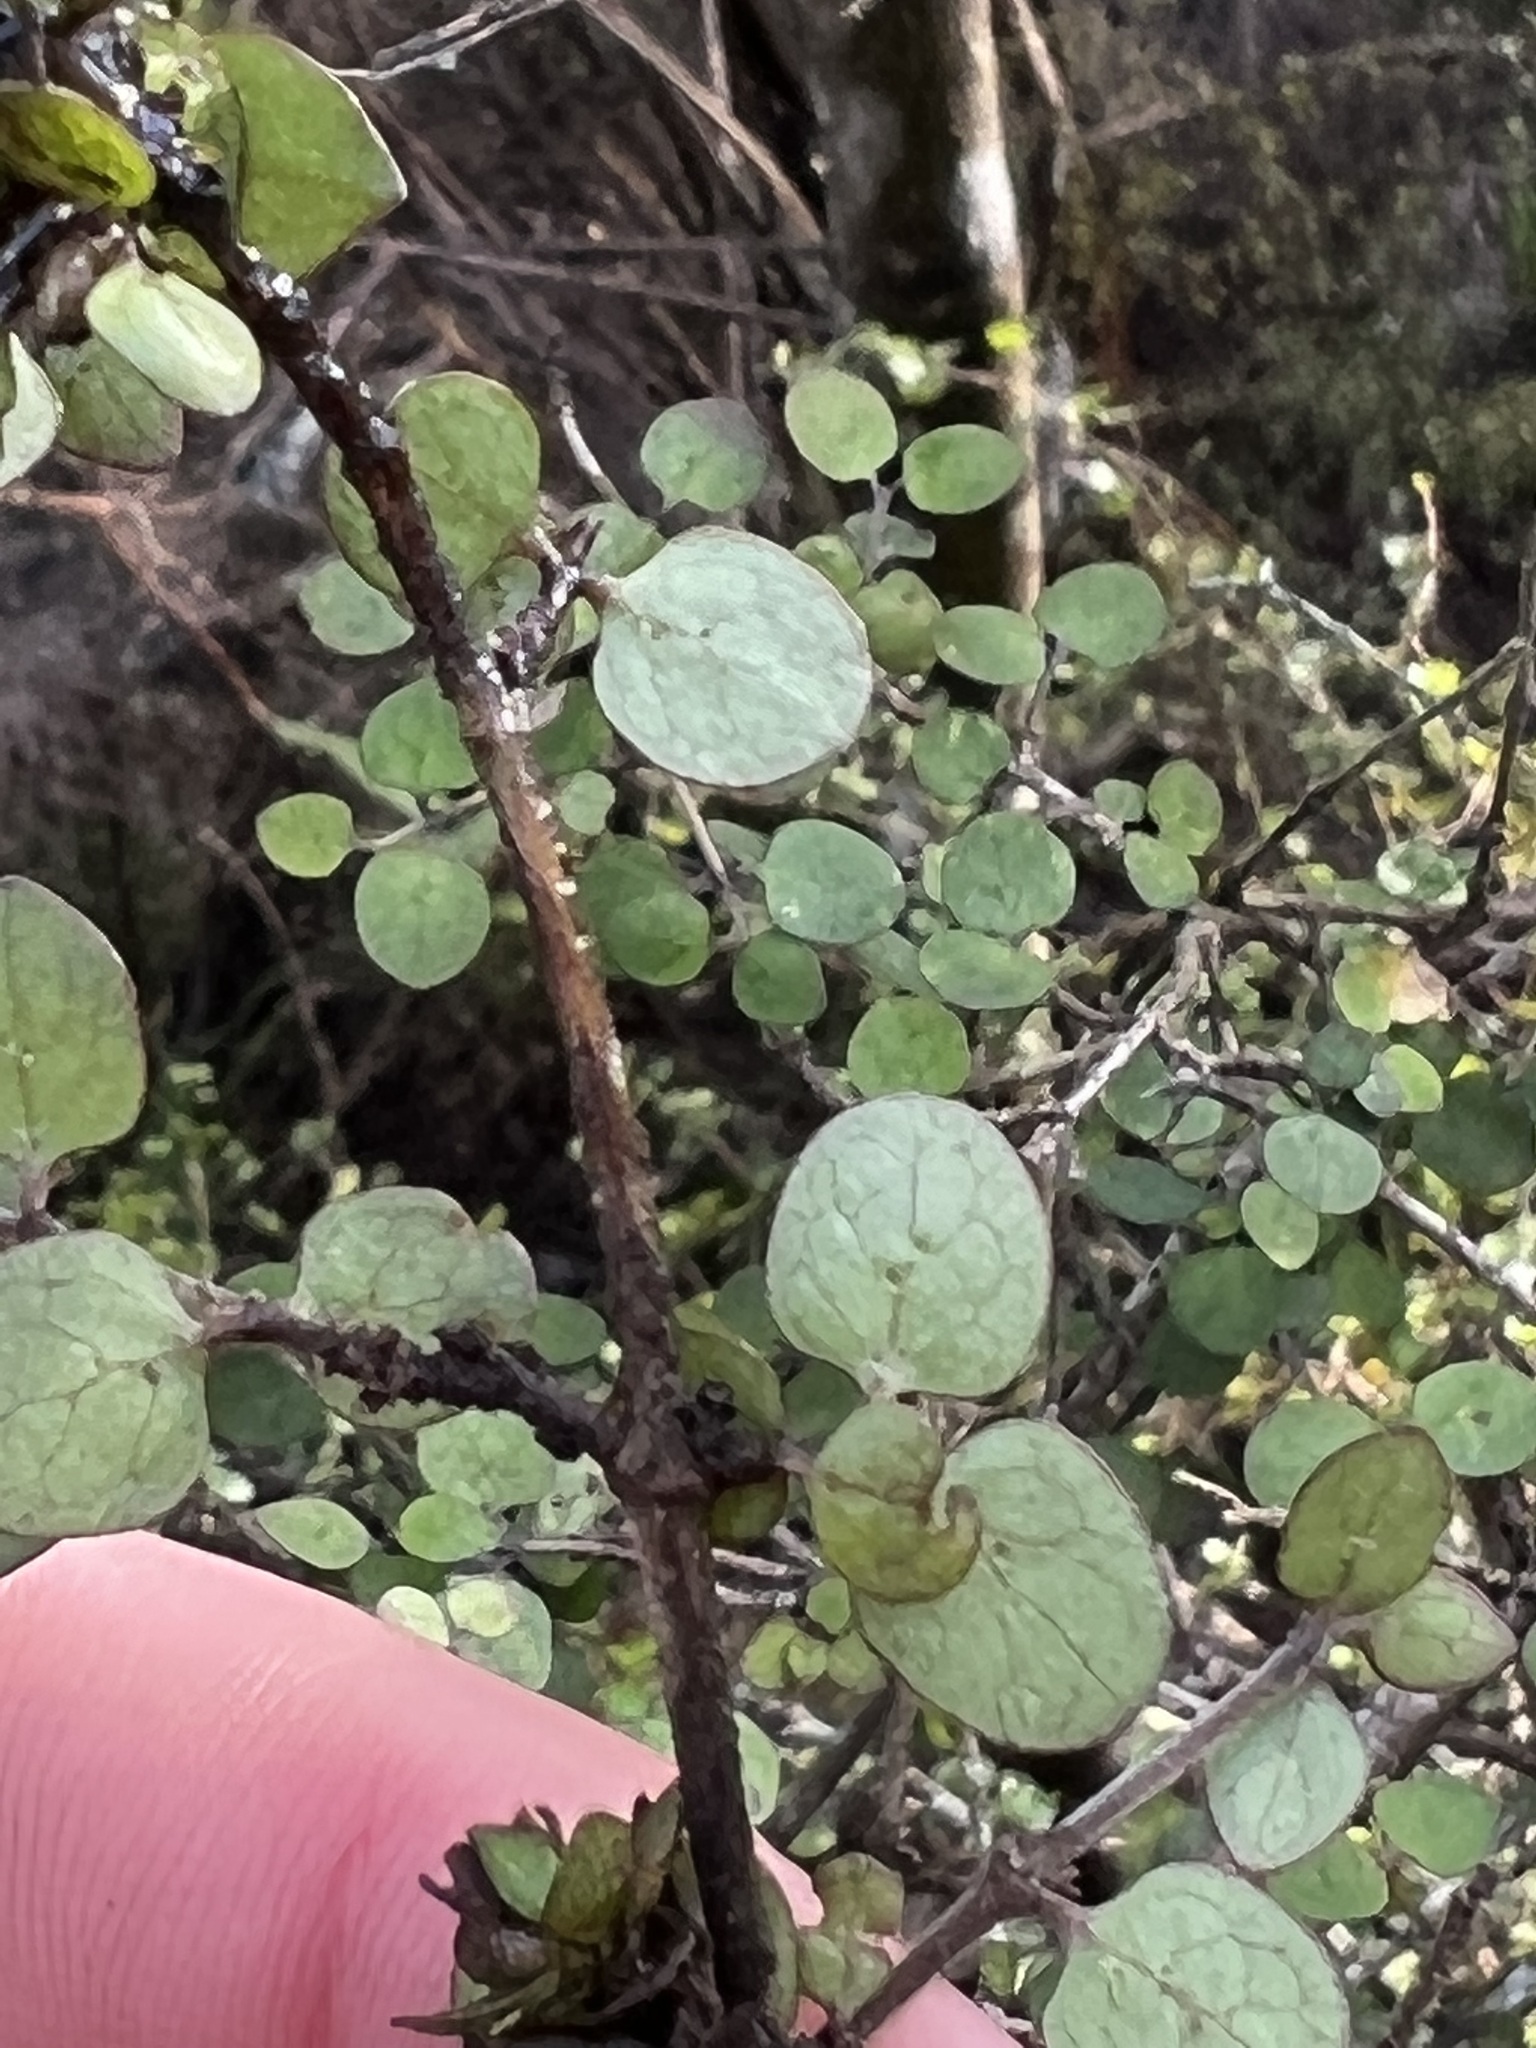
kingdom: Plantae
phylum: Tracheophyta
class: Magnoliopsida
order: Gentianales
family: Rubiaceae
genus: Coprosma
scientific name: Coprosma rhamnoides
